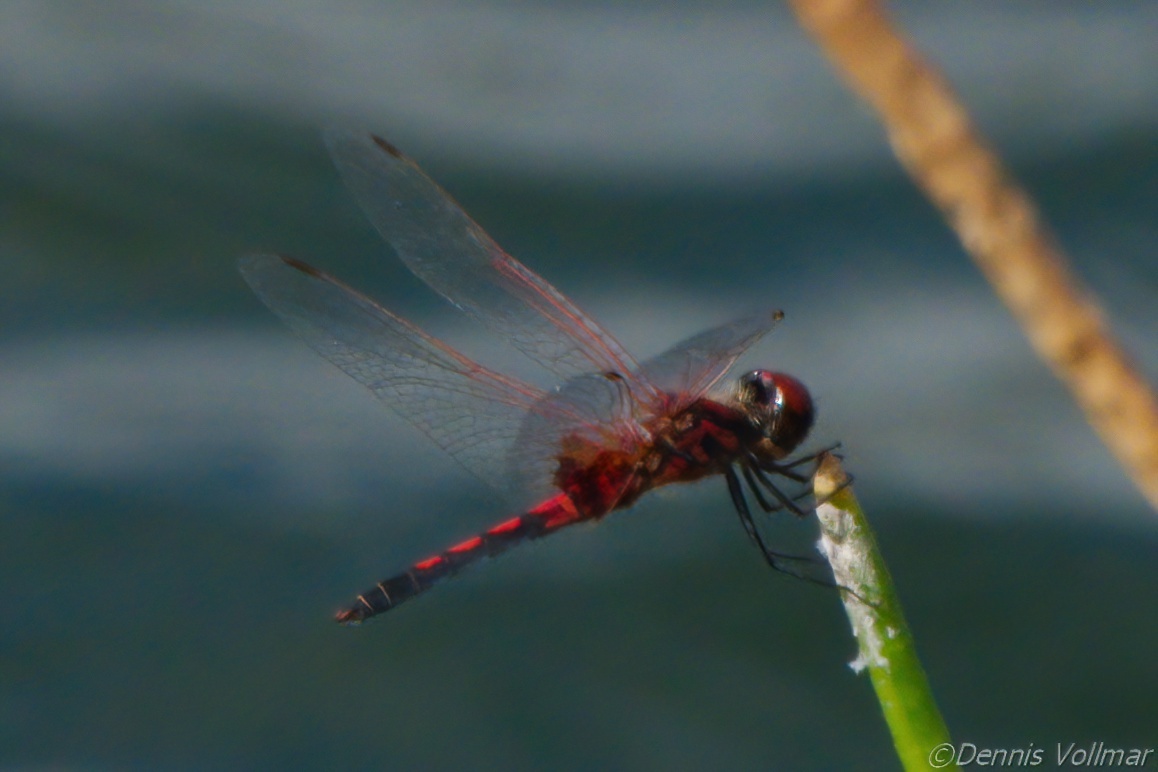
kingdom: Animalia
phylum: Arthropoda
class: Insecta
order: Odonata
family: Libellulidae
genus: Celithemis
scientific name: Celithemis bertha
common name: Red-veined pennant
